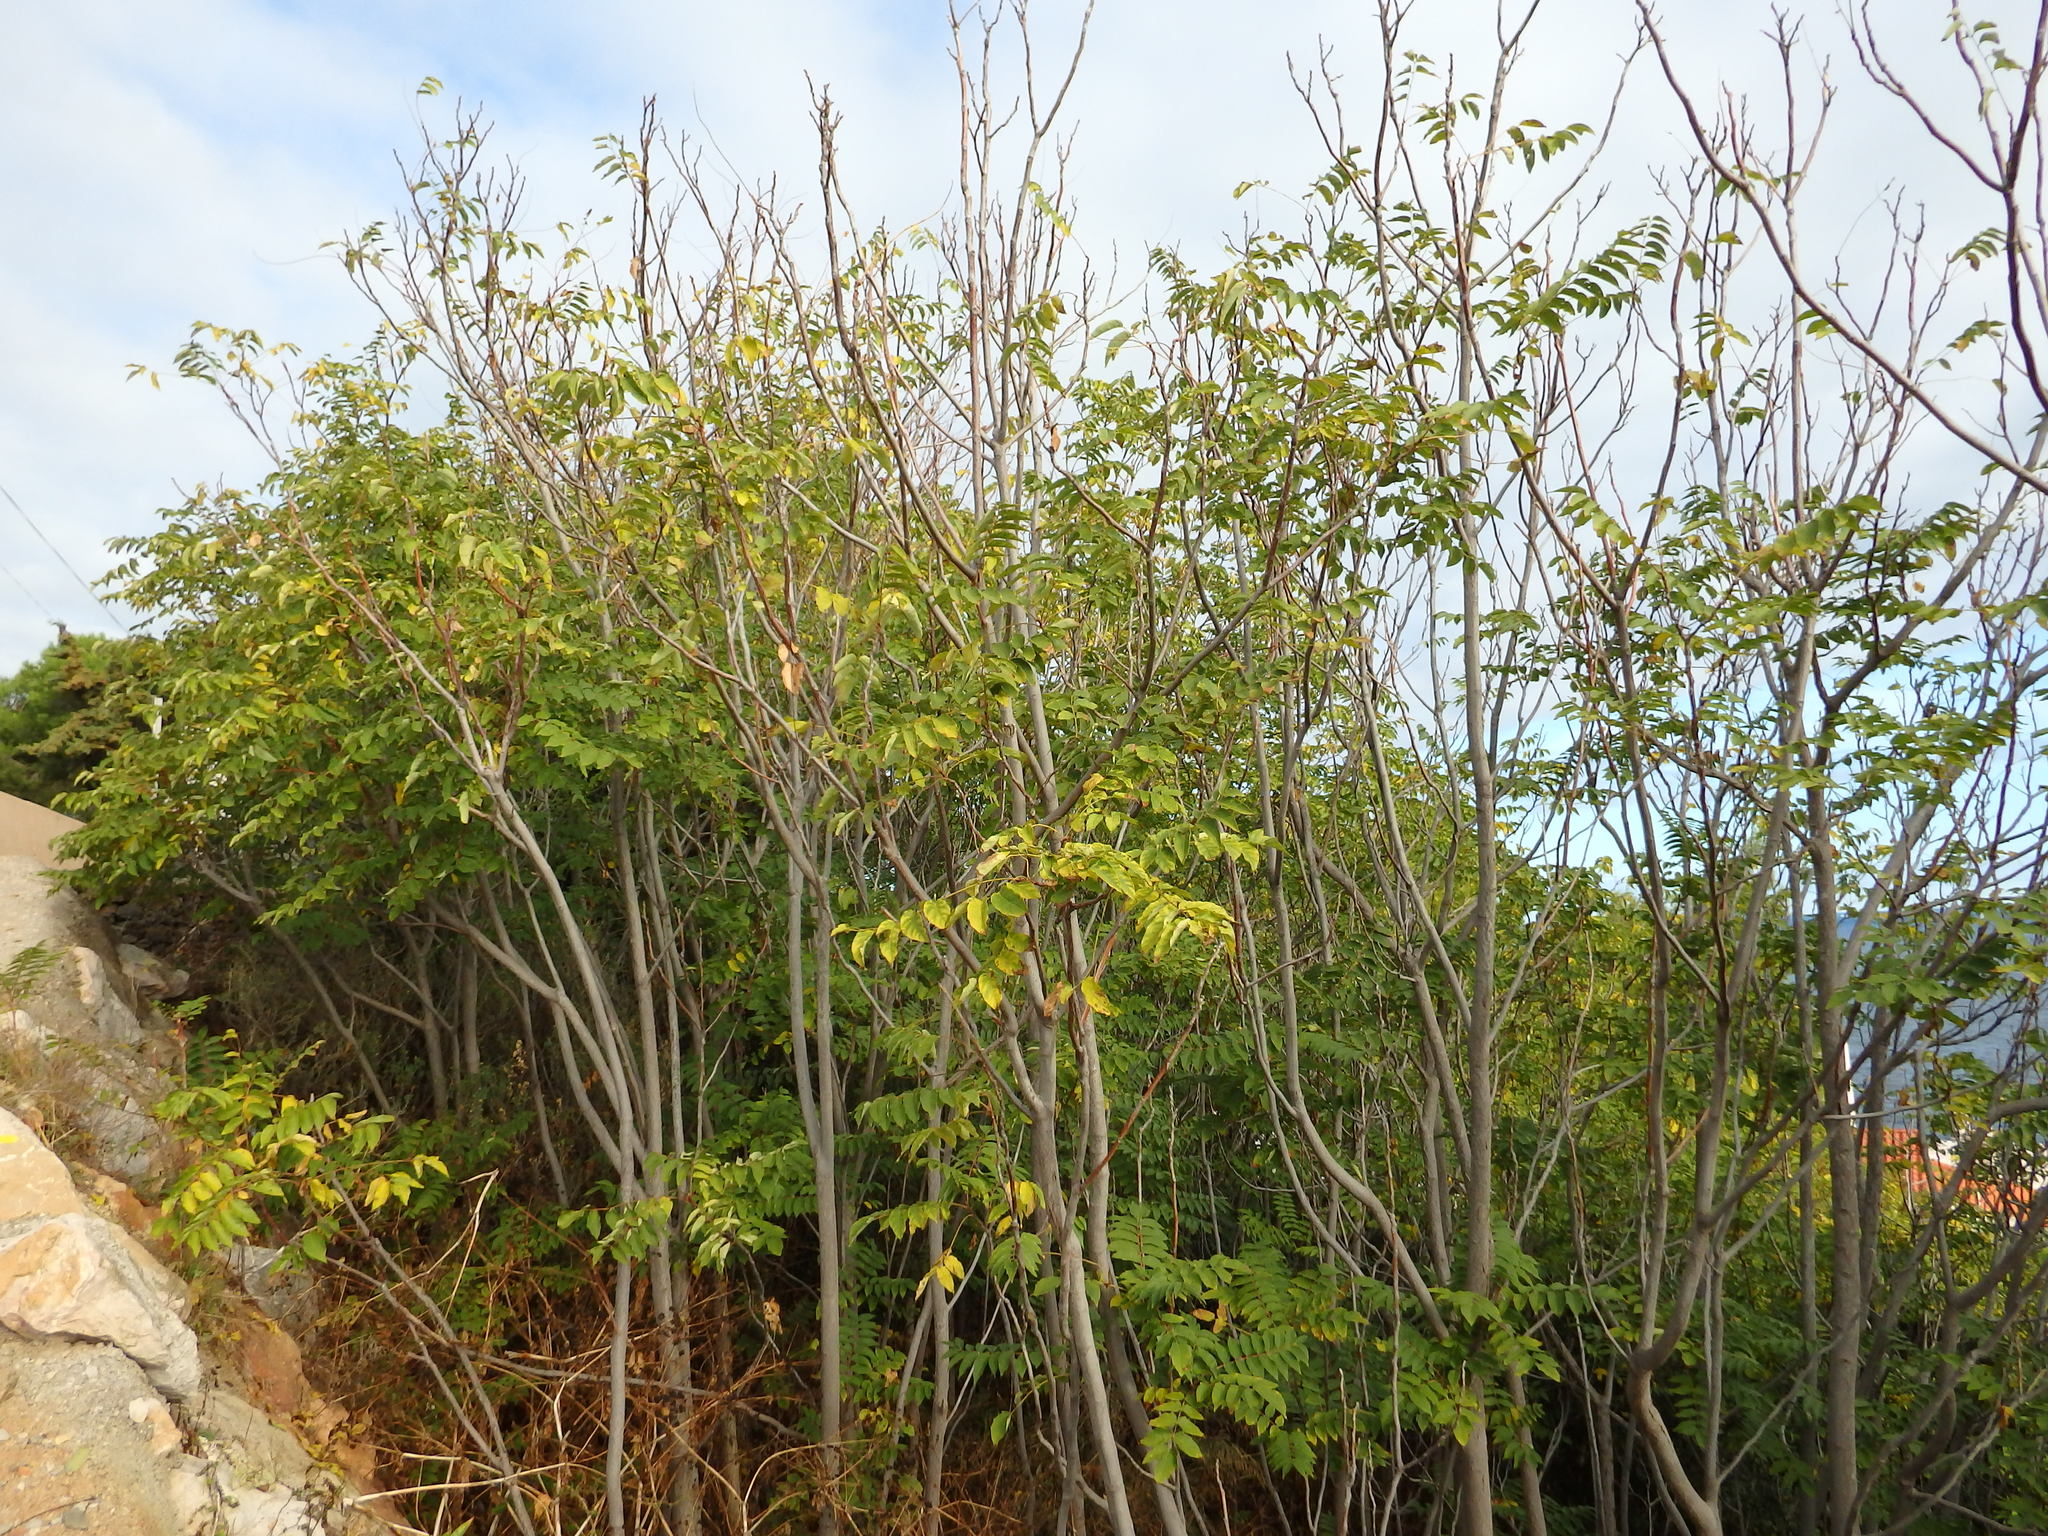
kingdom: Plantae
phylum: Tracheophyta
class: Magnoliopsida
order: Sapindales
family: Simaroubaceae
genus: Ailanthus
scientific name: Ailanthus altissima
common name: Tree-of-heaven
